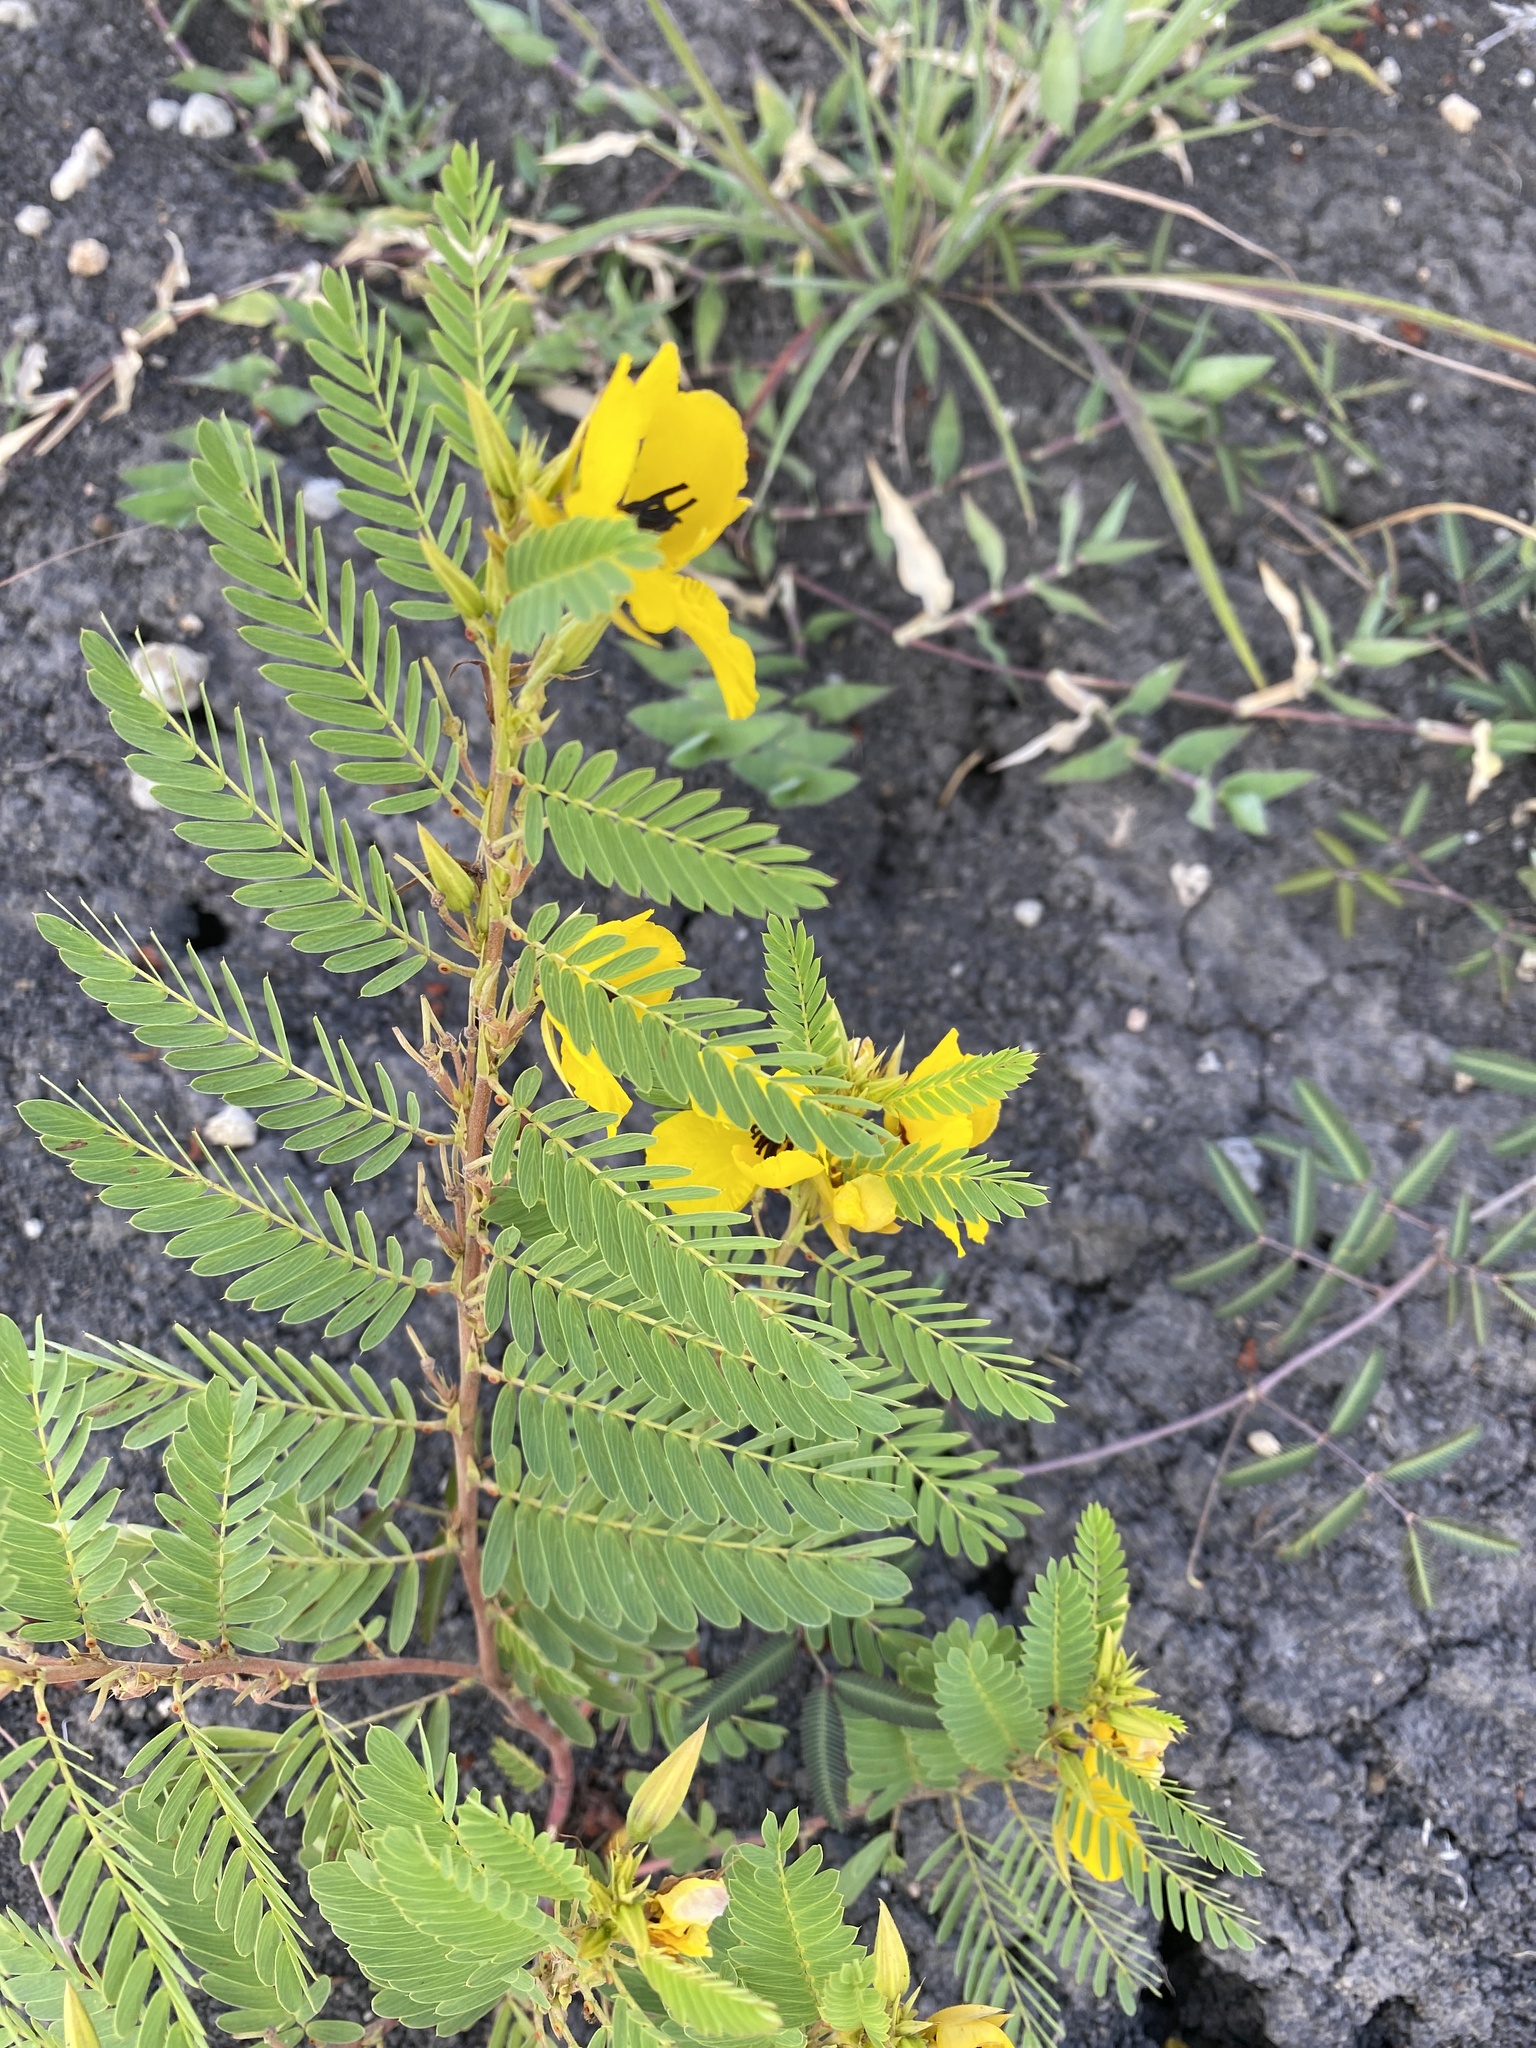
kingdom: Plantae
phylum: Tracheophyta
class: Magnoliopsida
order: Fabales
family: Fabaceae
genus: Chamaecrista
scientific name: Chamaecrista fasciculata
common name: Golden cassia
